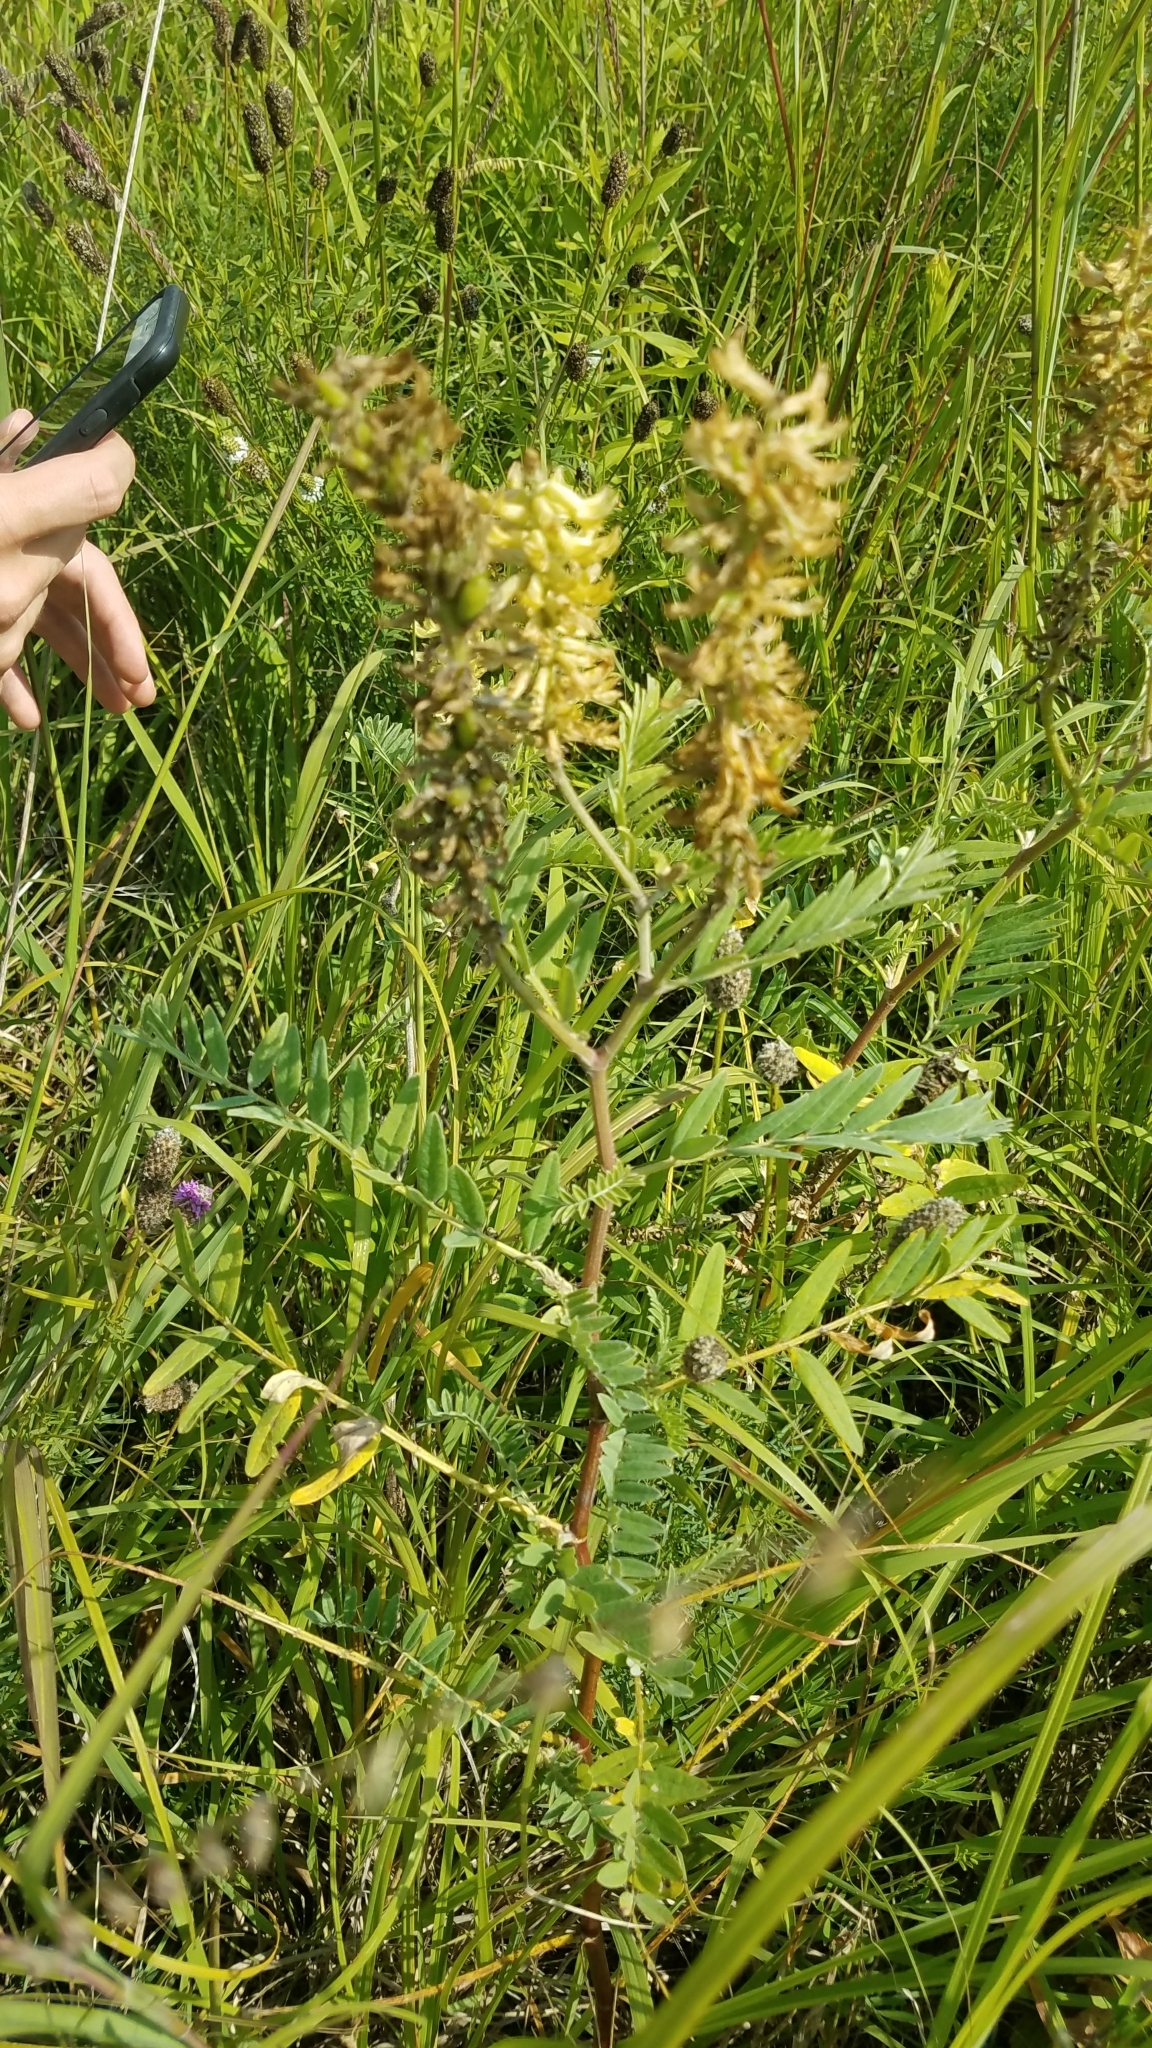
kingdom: Plantae
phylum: Tracheophyta
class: Magnoliopsida
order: Fabales
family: Fabaceae
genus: Astragalus
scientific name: Astragalus canadensis
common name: Canada milk-vetch
